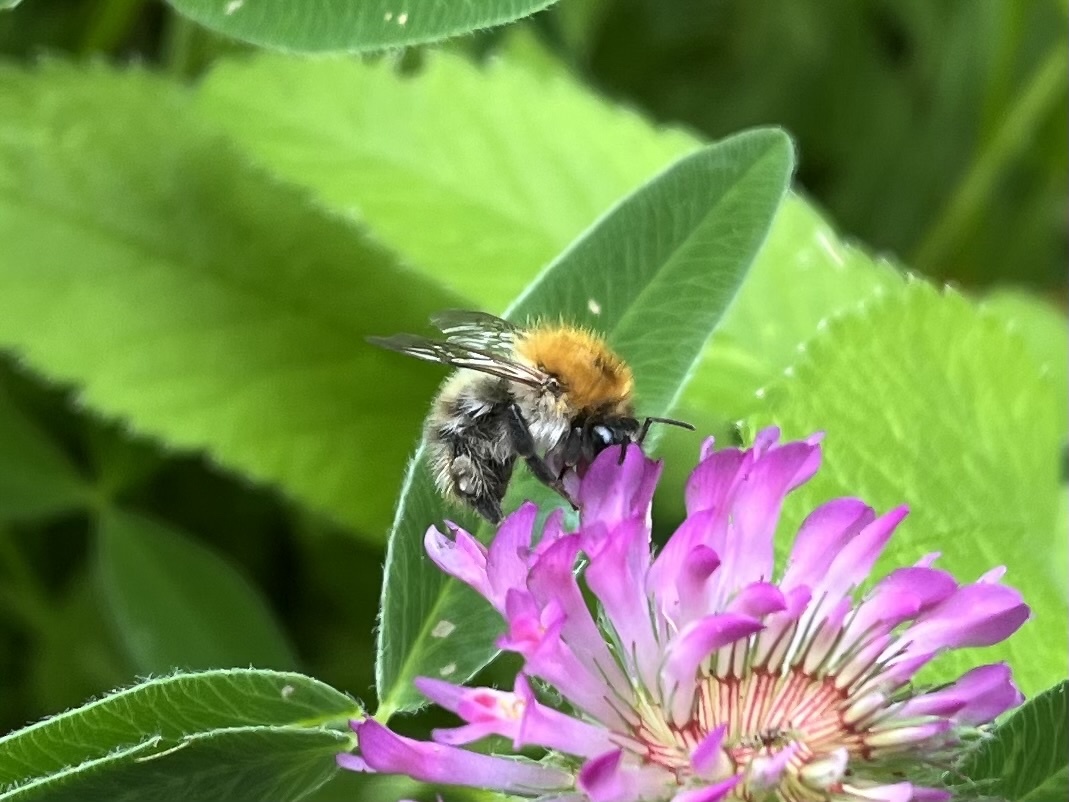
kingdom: Animalia
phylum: Arthropoda
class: Insecta
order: Hymenoptera
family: Apidae
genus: Bombus
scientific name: Bombus pascuorum
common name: Common carder bee
